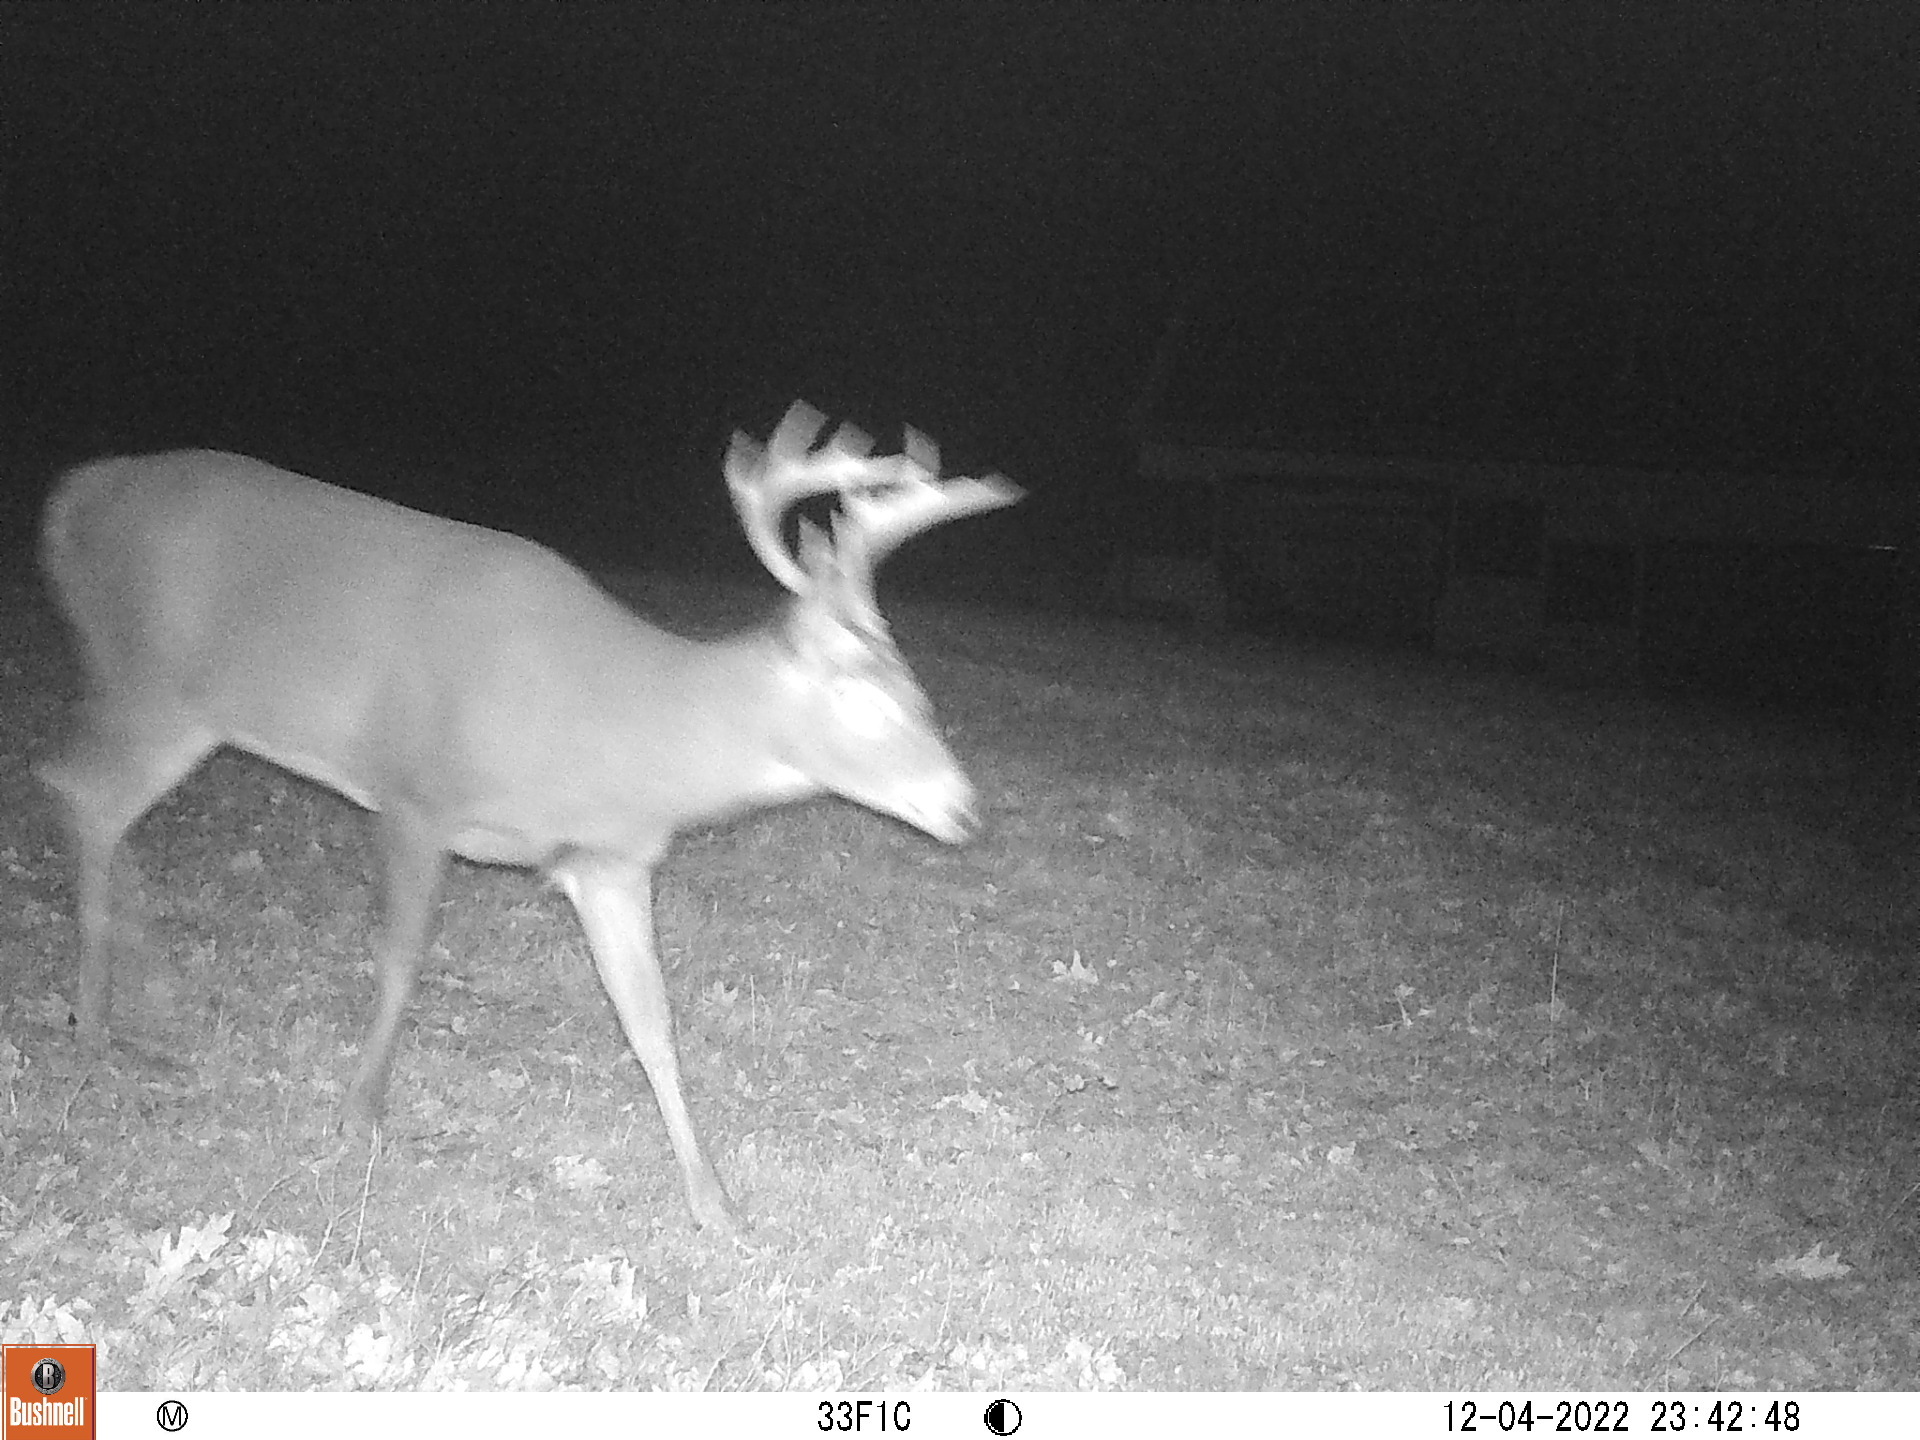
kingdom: Animalia
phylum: Chordata
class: Mammalia
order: Artiodactyla
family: Cervidae
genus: Odocoileus
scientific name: Odocoileus virginianus
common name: White-tailed deer
